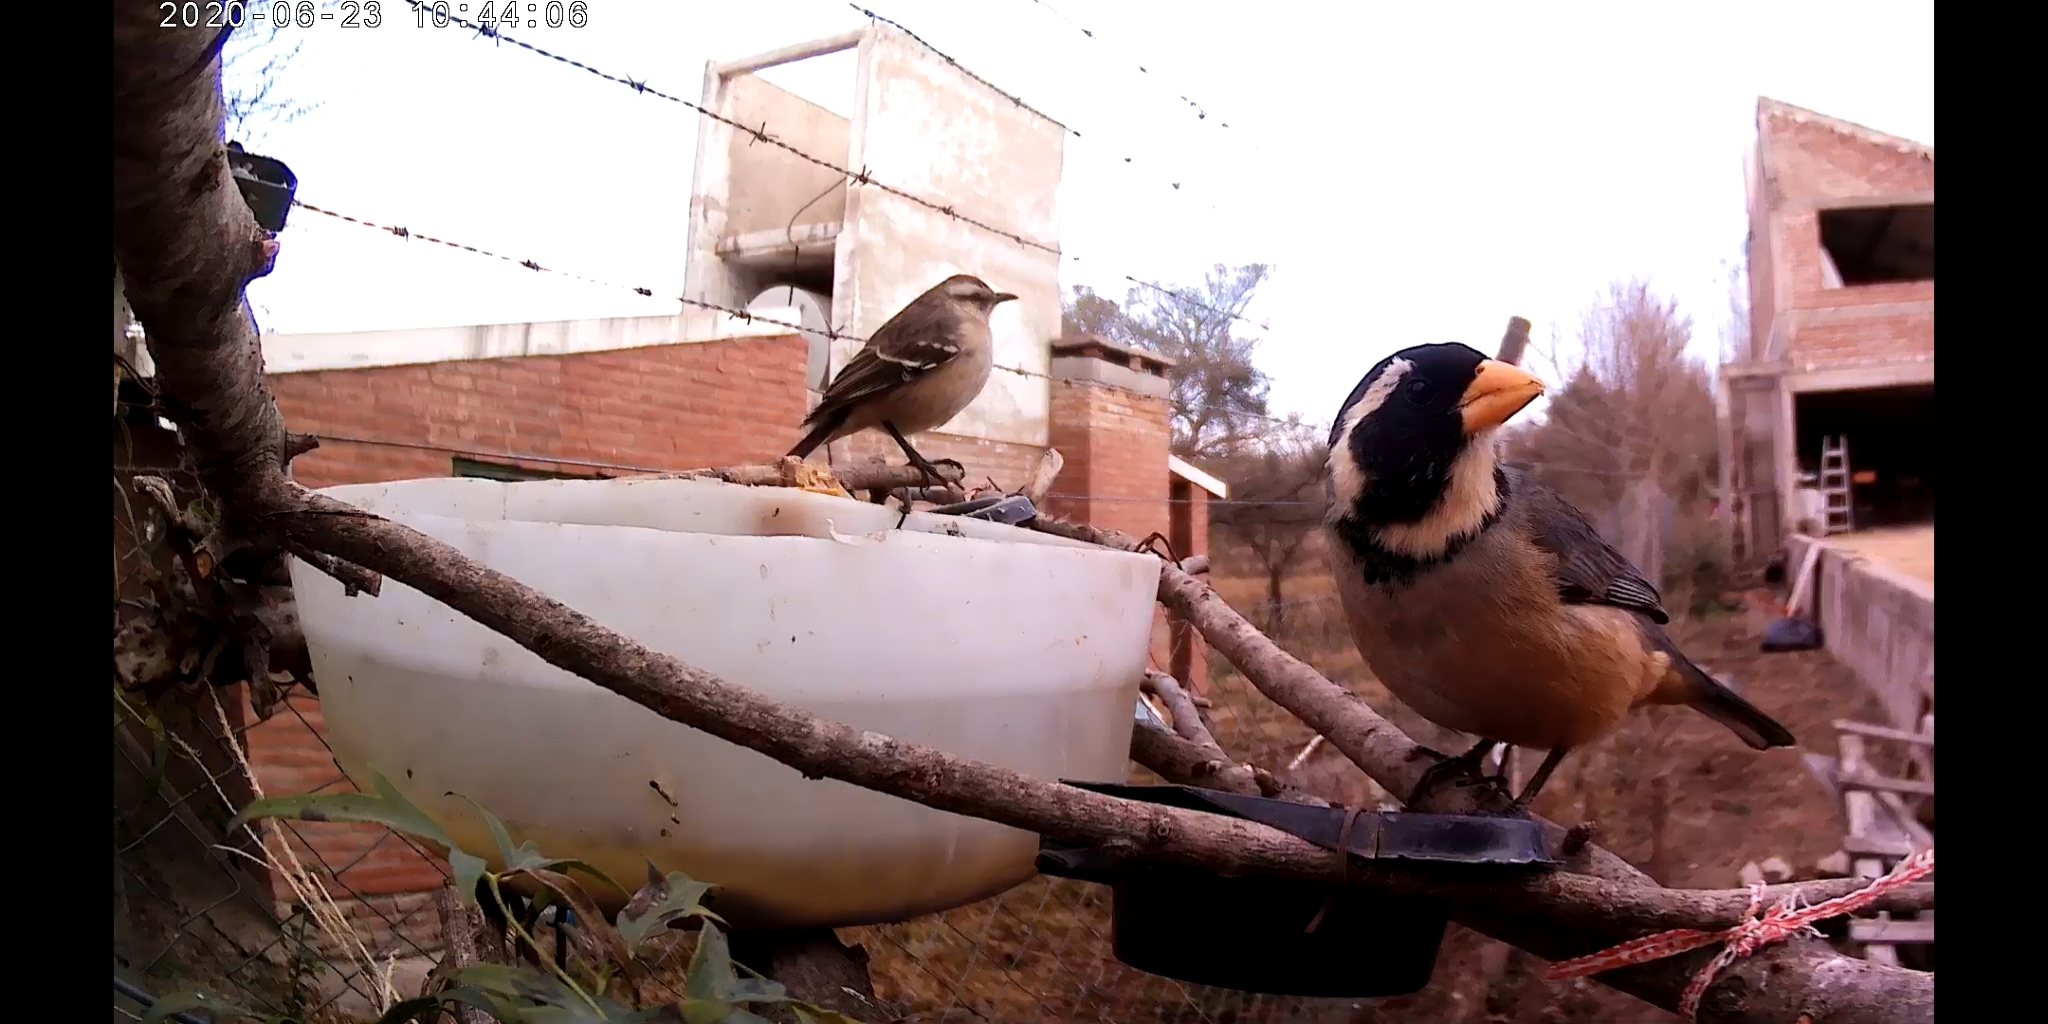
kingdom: Animalia
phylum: Chordata
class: Aves
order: Passeriformes
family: Thraupidae
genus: Saltator
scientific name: Saltator aurantiirostris
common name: Golden-billed saltator
